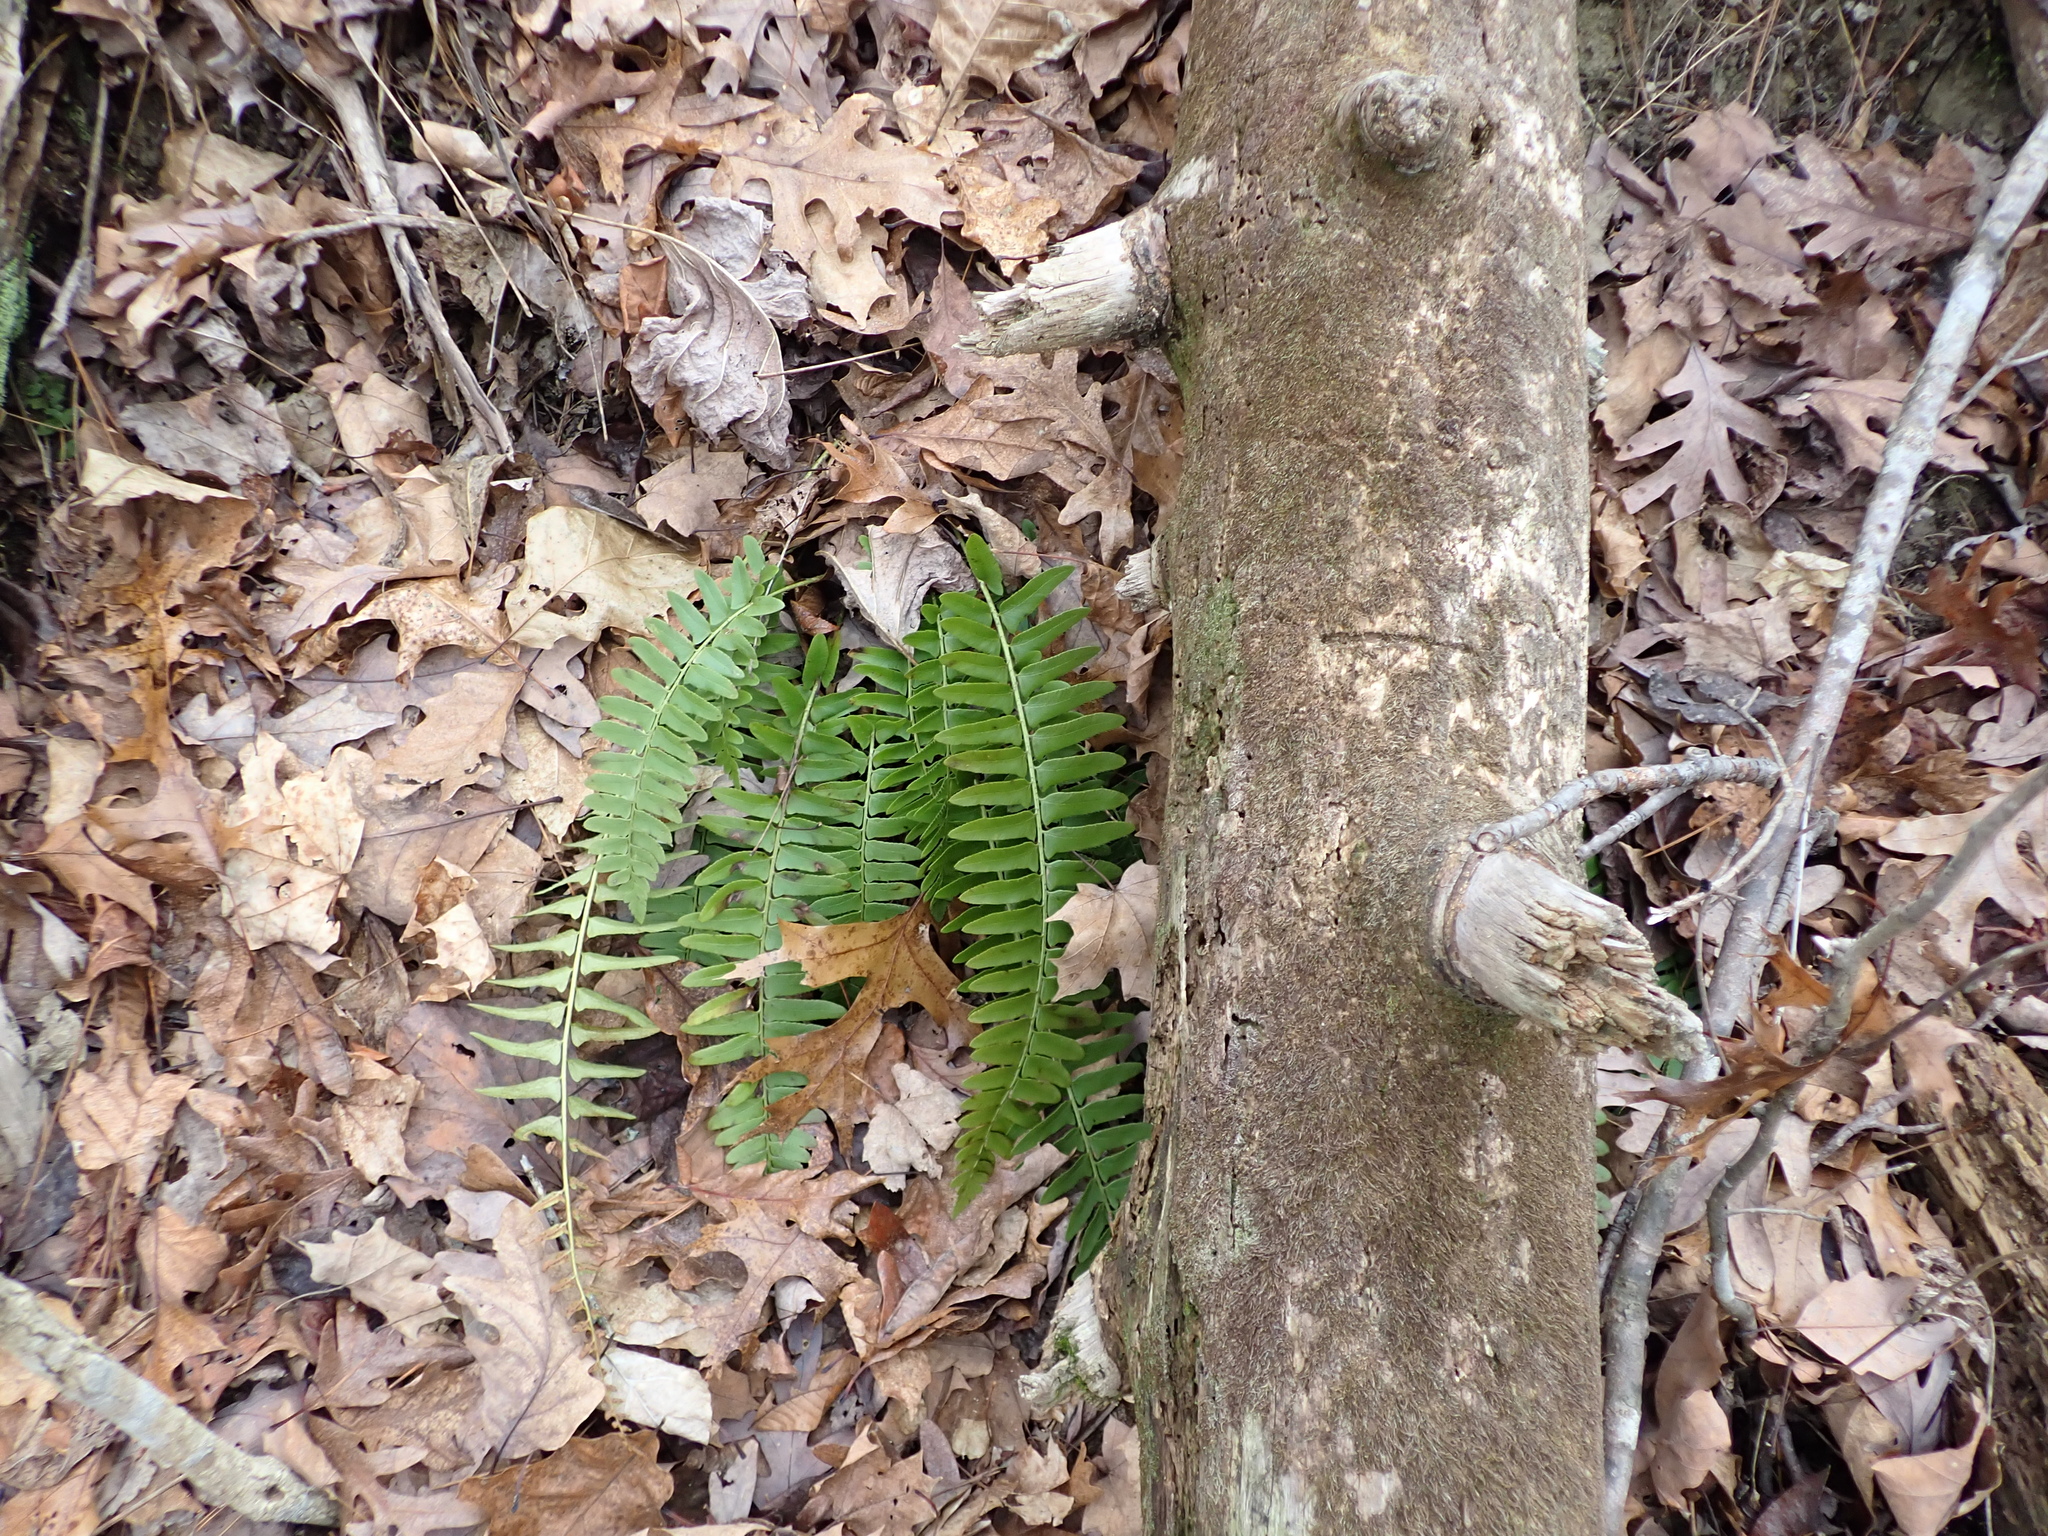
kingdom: Plantae
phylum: Tracheophyta
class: Polypodiopsida
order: Polypodiales
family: Dryopteridaceae
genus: Polystichum
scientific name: Polystichum acrostichoides
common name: Christmas fern
